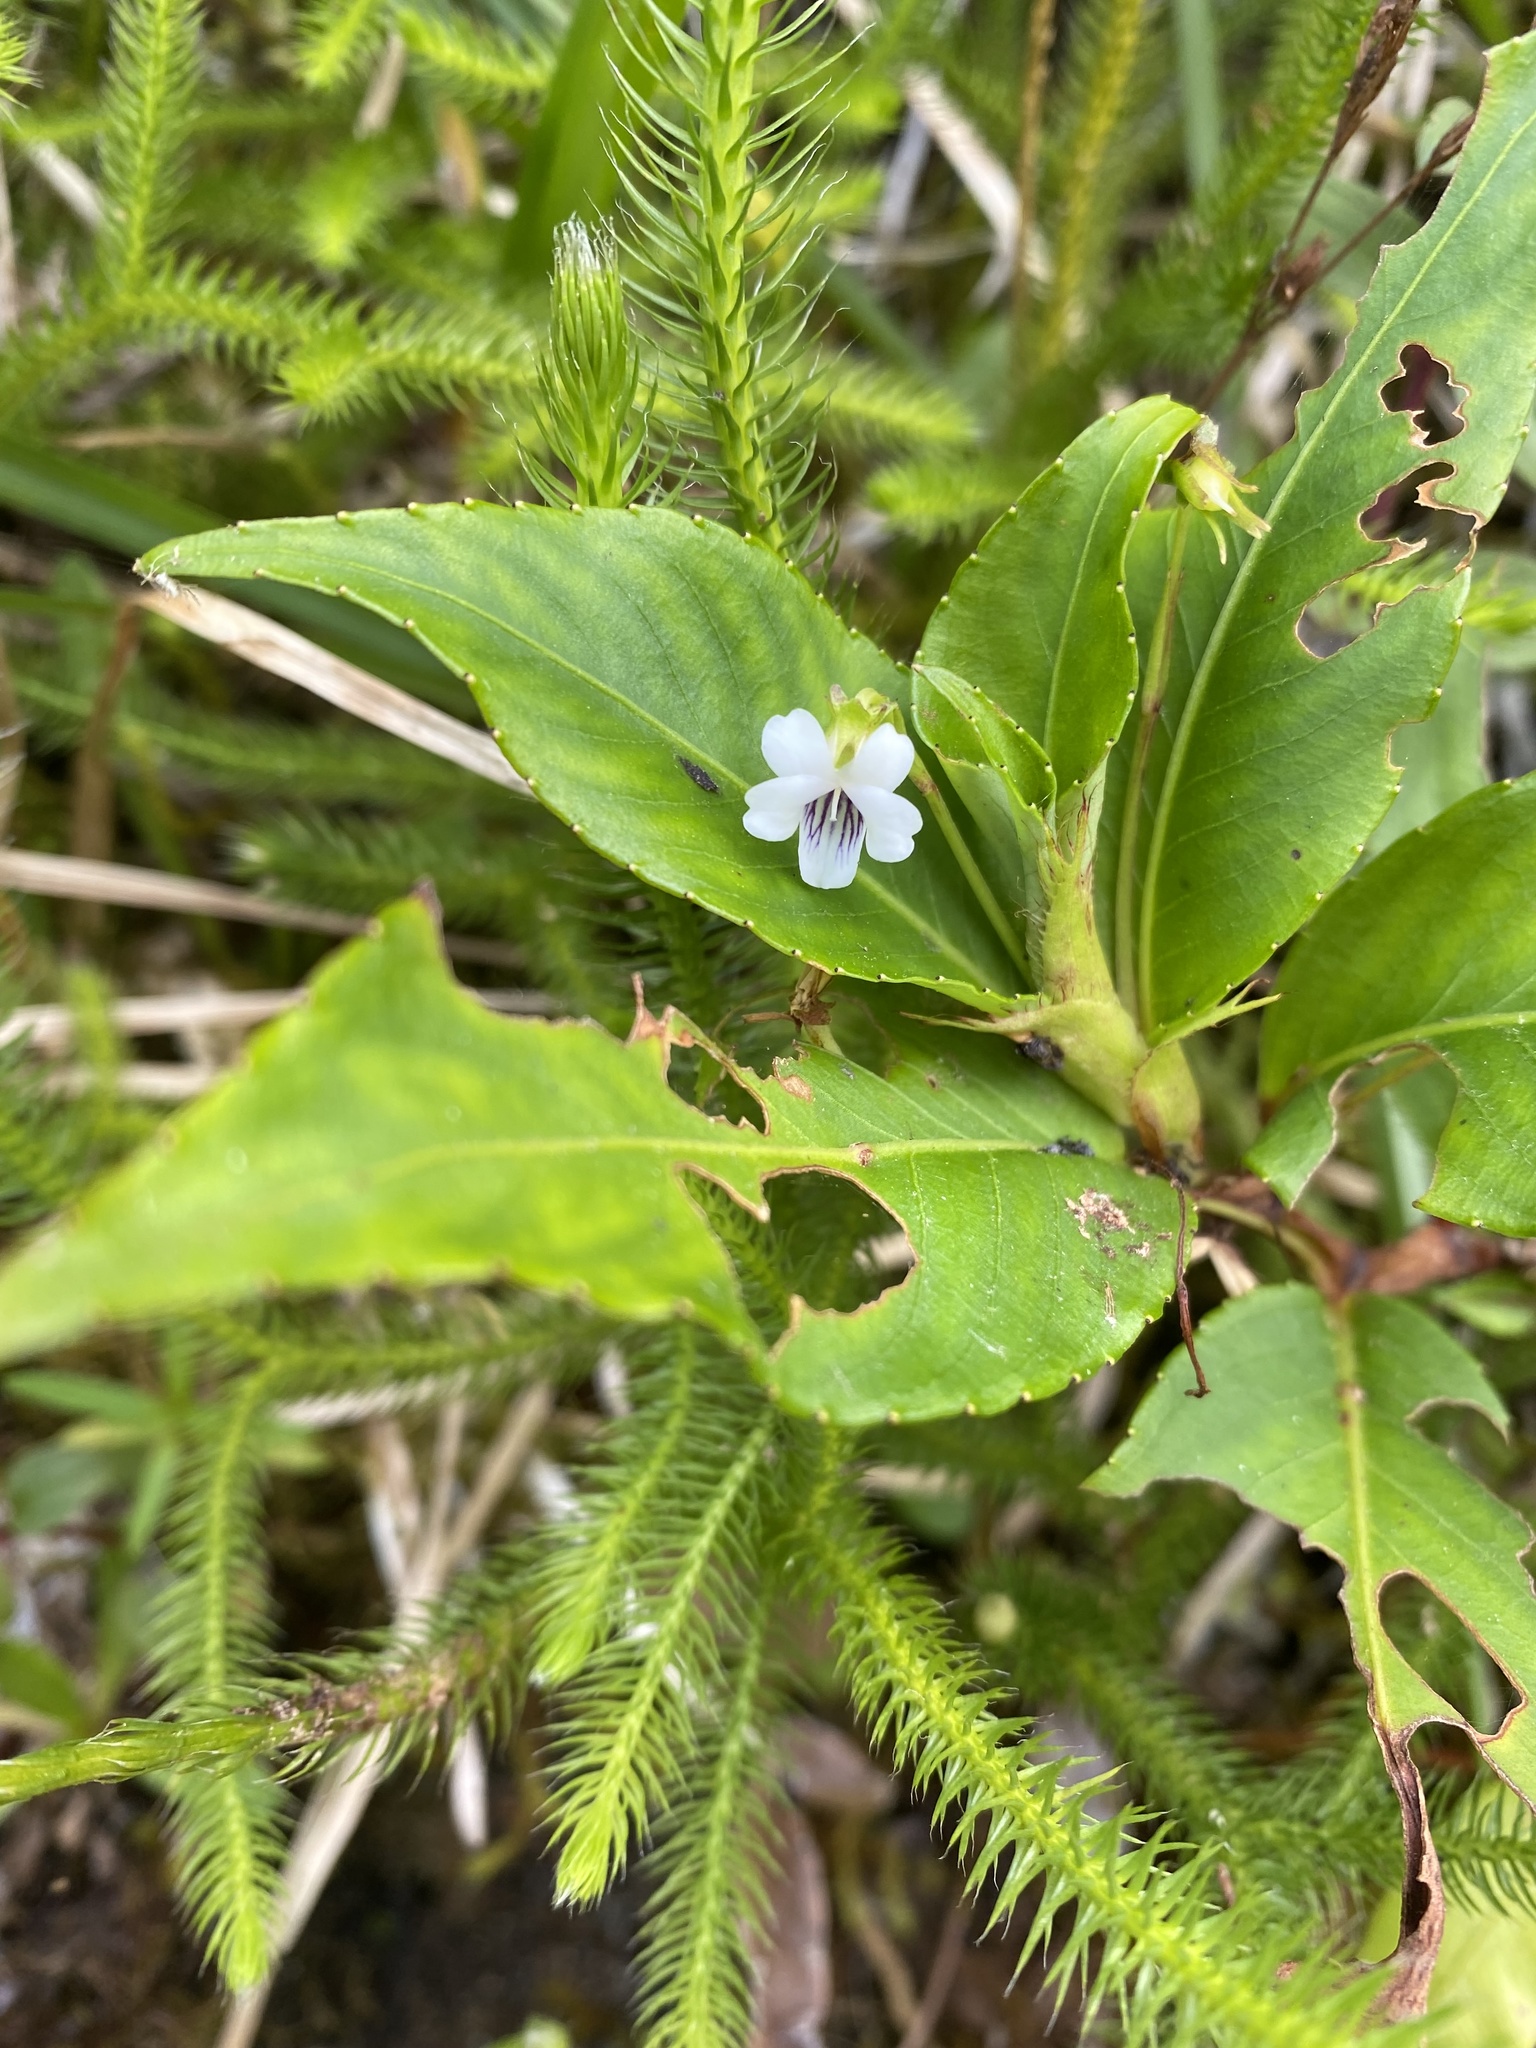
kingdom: Plantae
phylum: Tracheophyta
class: Magnoliopsida
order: Malpighiales
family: Violaceae
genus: Viola
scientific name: Viola stipularis
